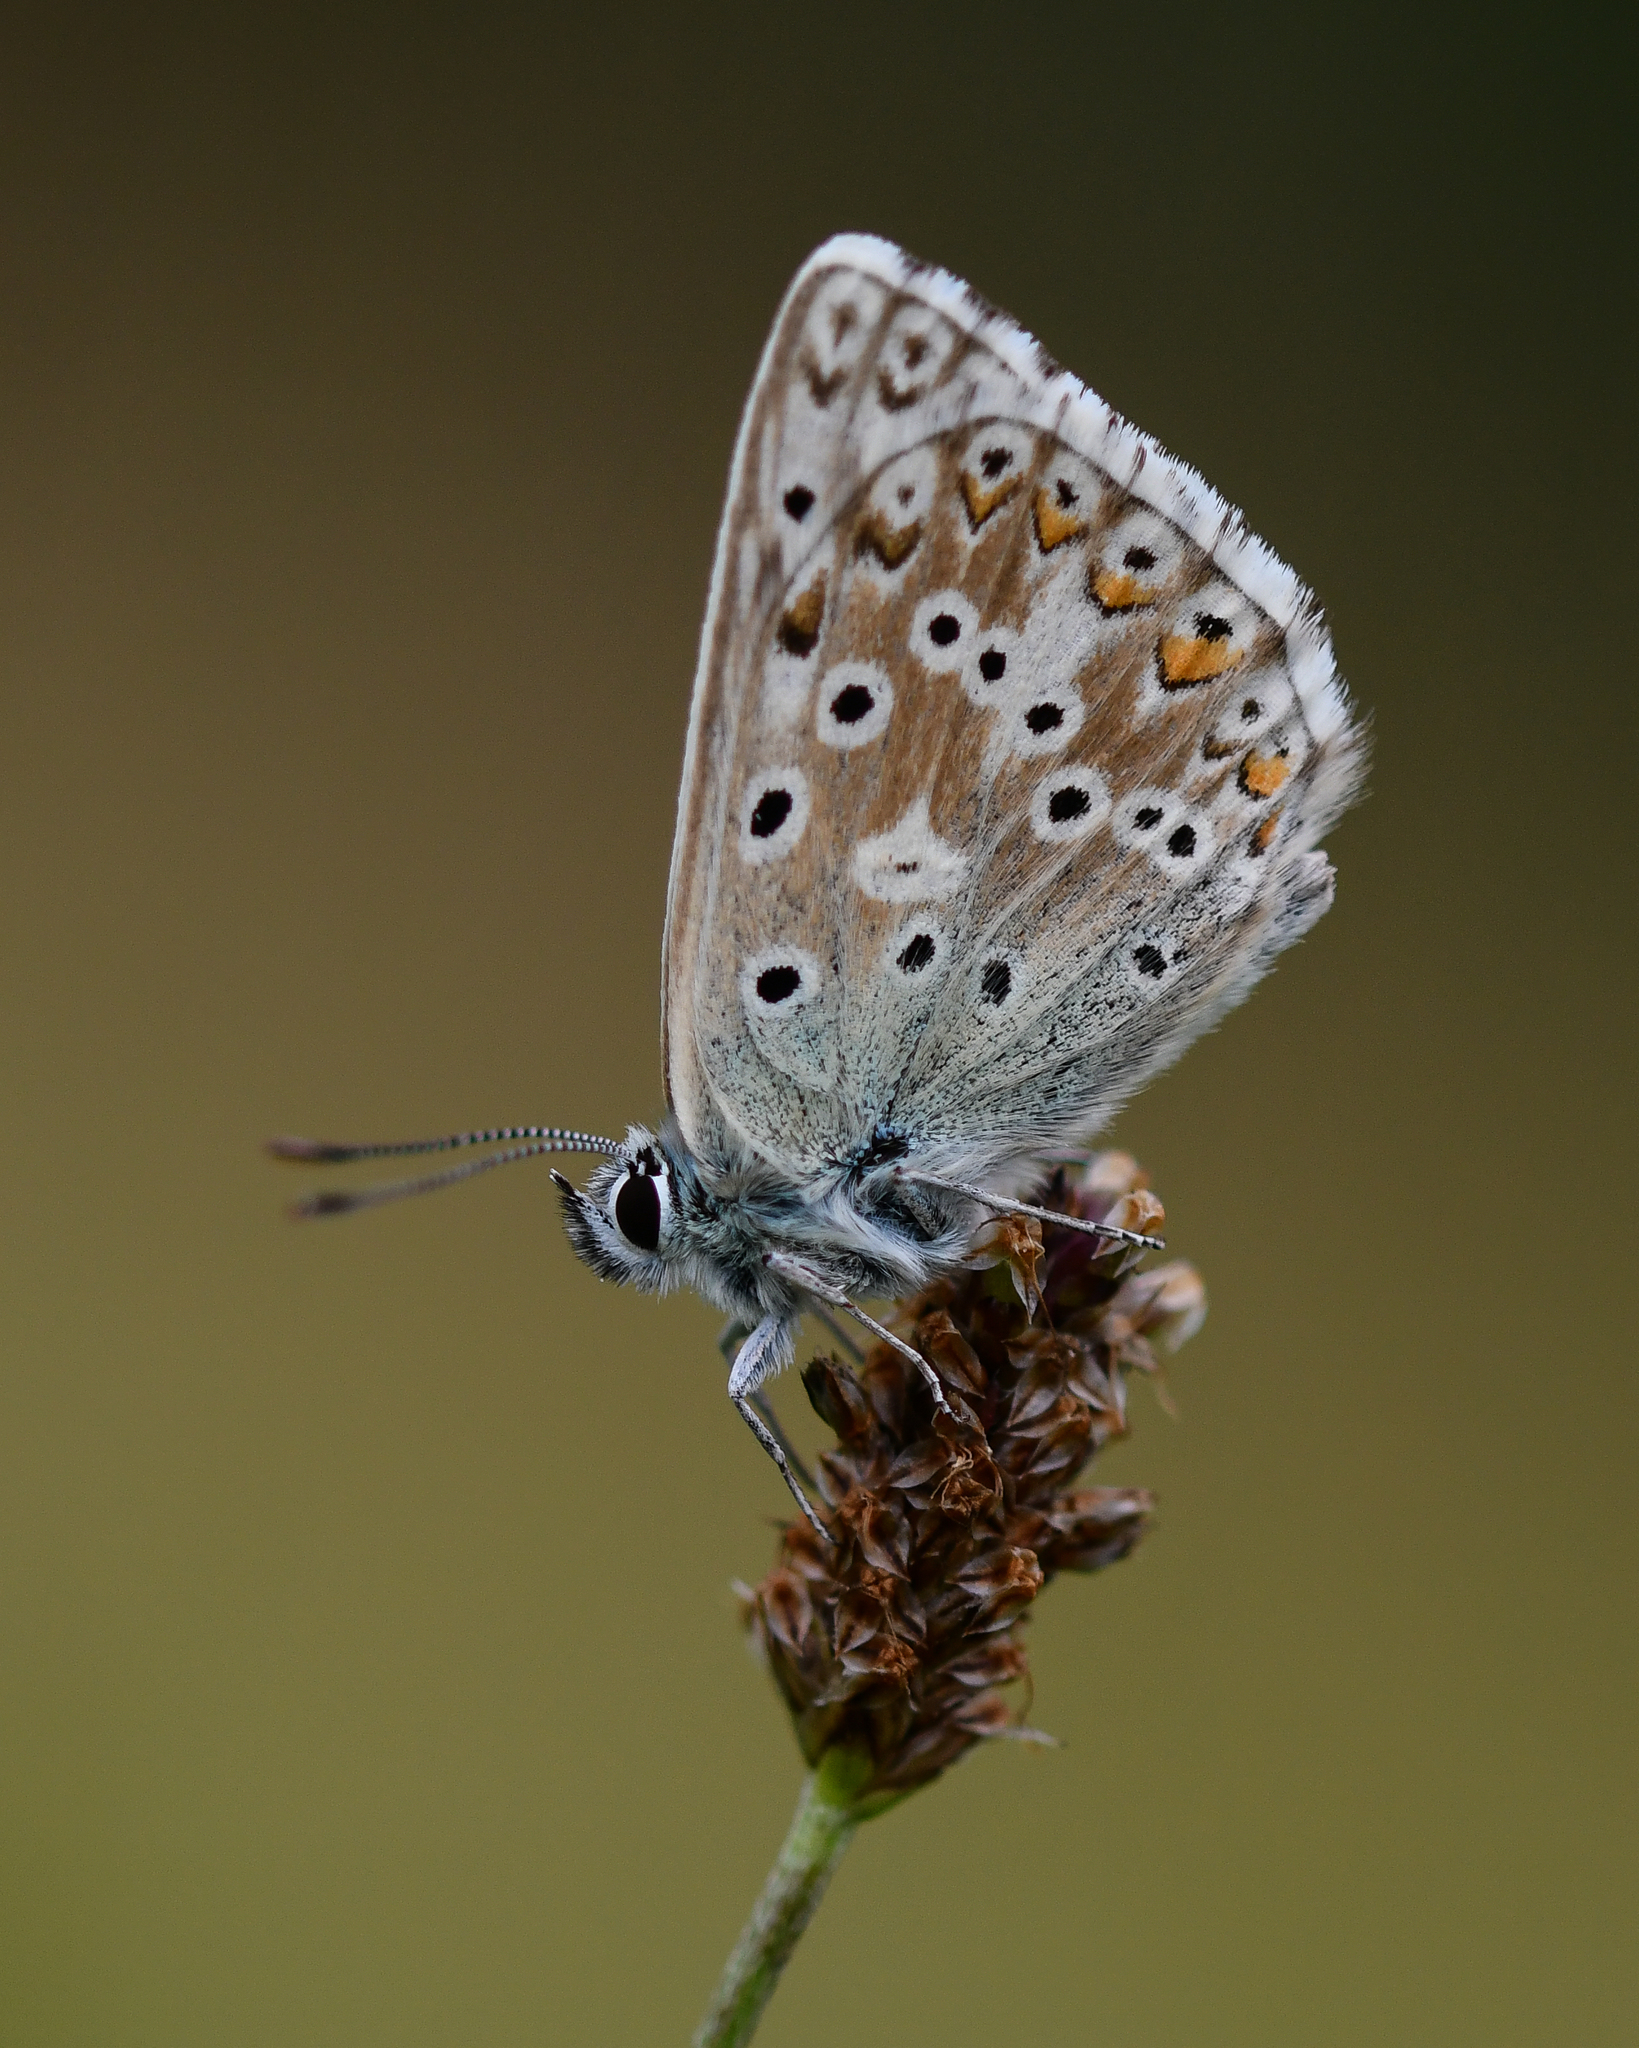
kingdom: Animalia
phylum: Arthropoda
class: Insecta
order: Lepidoptera
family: Lycaenidae
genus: Lysandra
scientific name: Lysandra coridon
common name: Chalkhill blue
